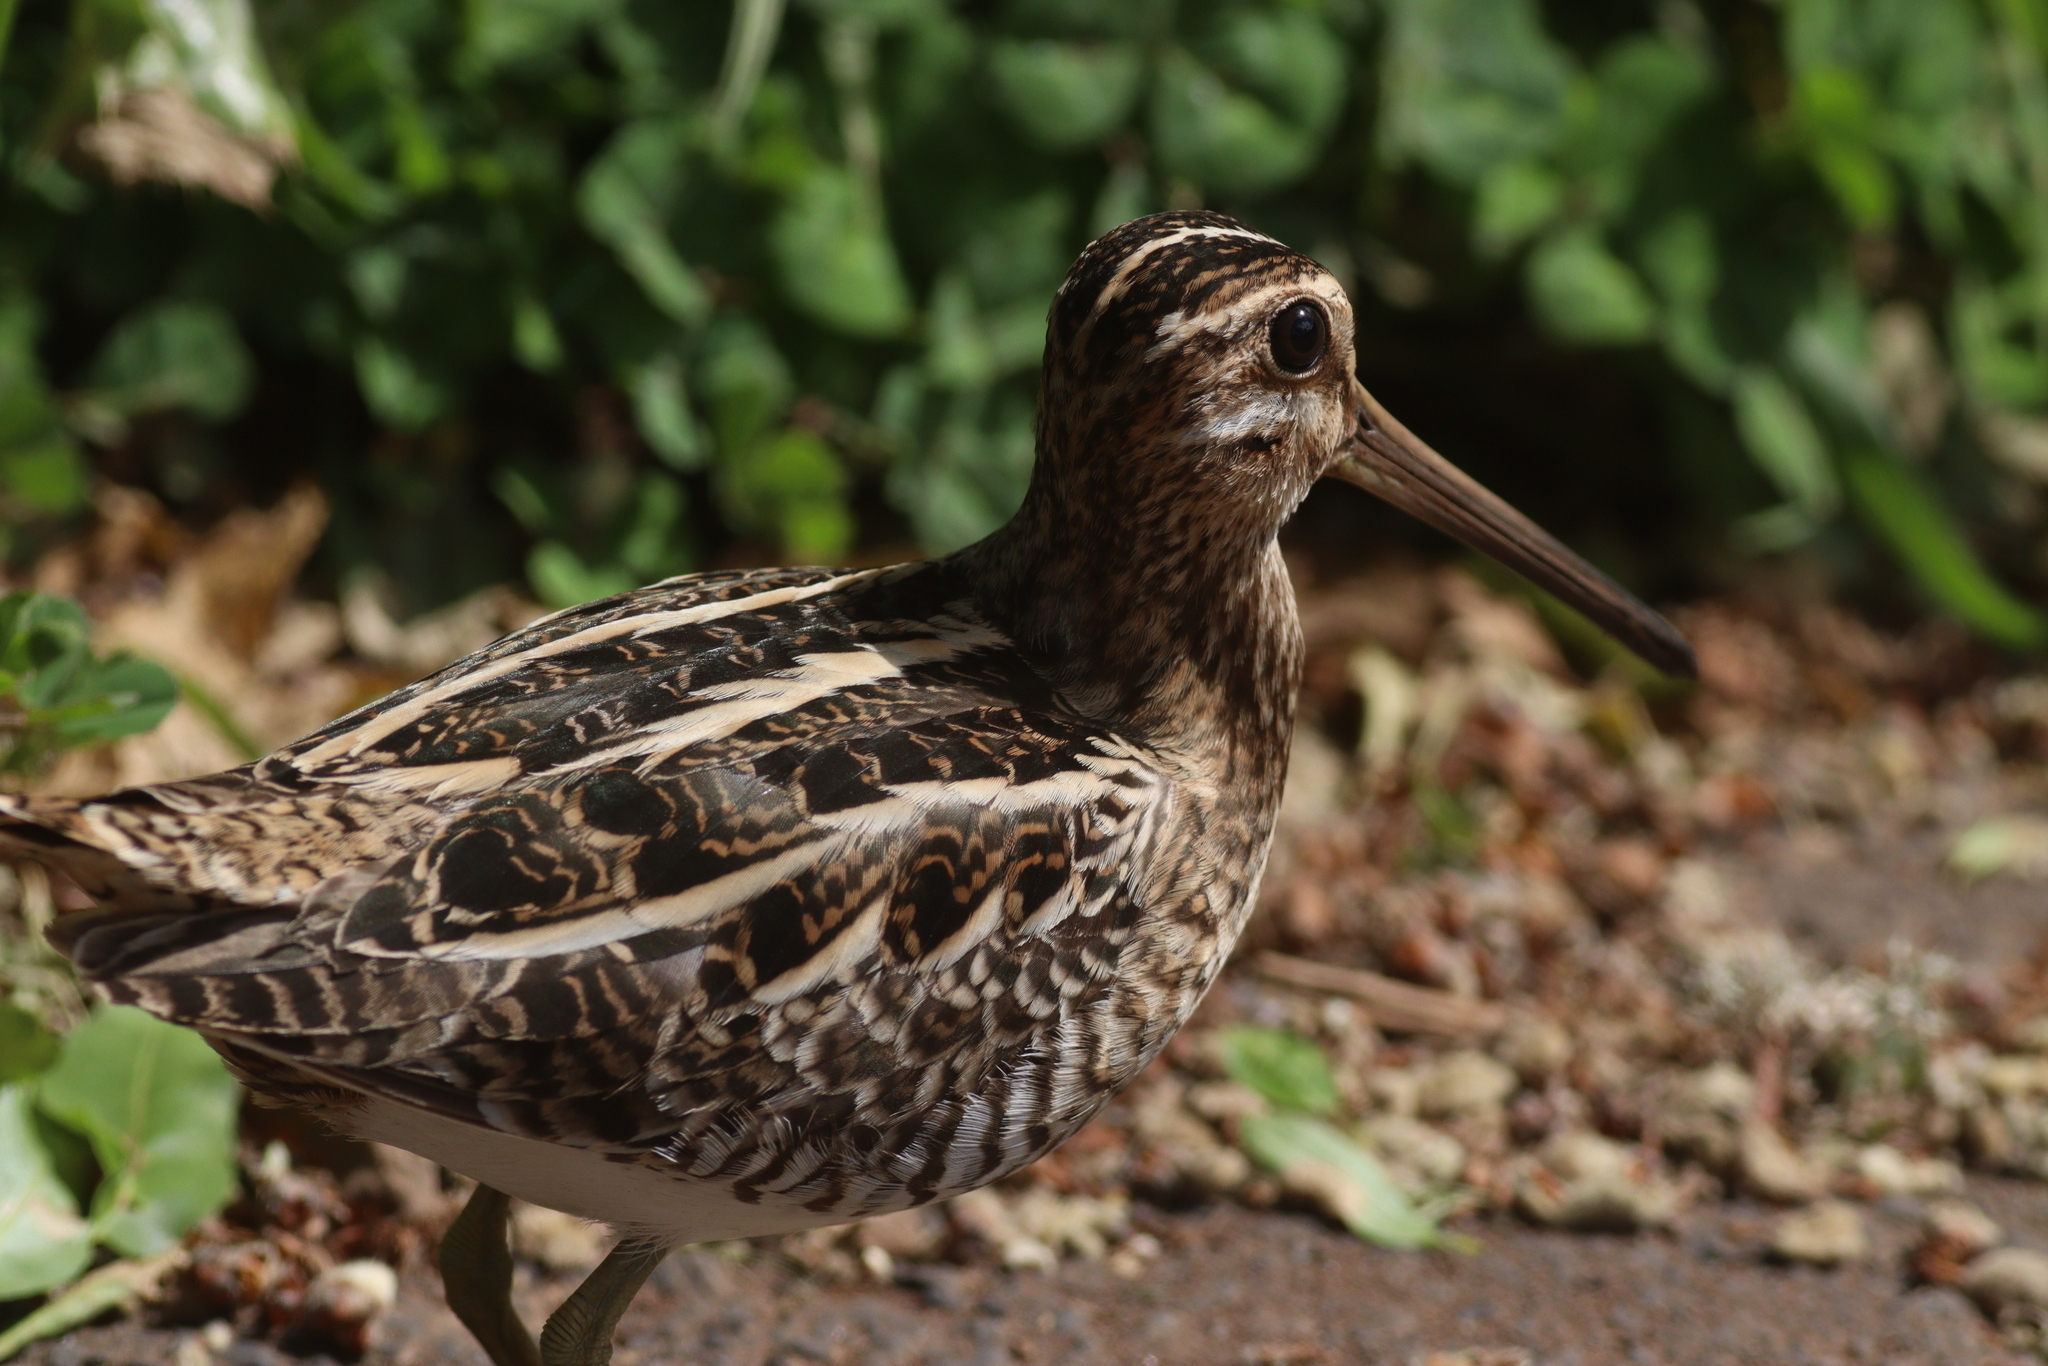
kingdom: Animalia
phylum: Chordata
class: Aves
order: Charadriiformes
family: Scolopacidae
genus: Gallinago
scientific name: Gallinago gallinago
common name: Common snipe
